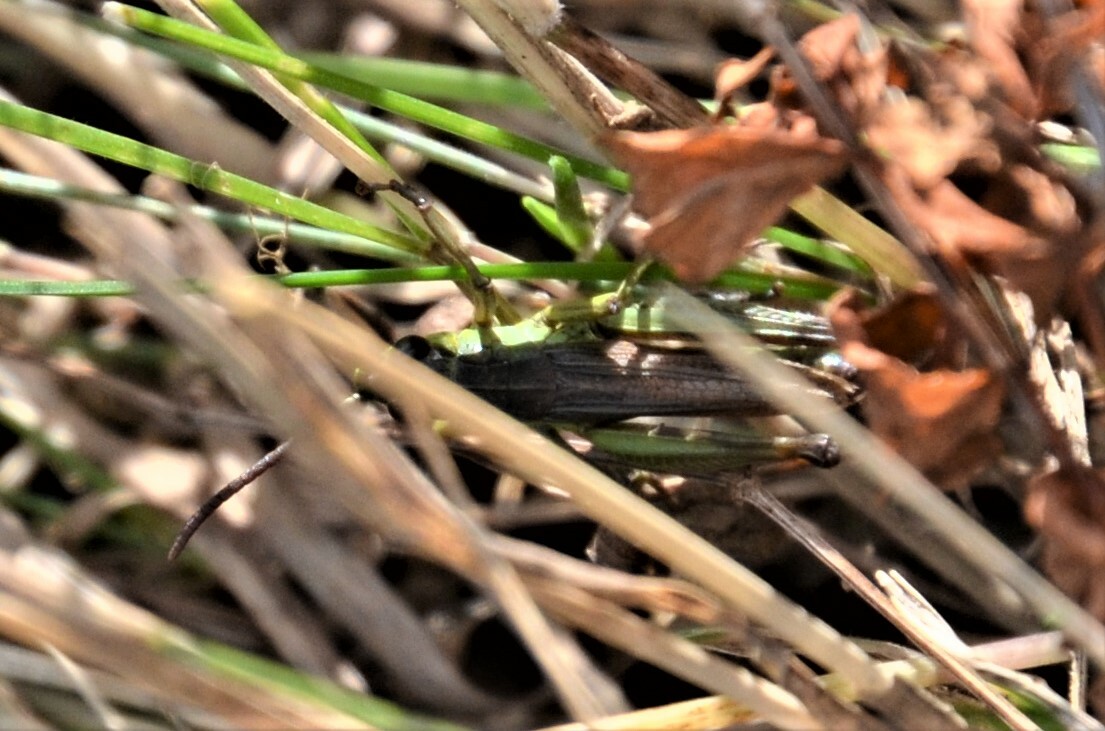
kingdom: Animalia
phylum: Arthropoda
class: Insecta
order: Orthoptera
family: Acrididae
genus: Pseudochorthippus
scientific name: Pseudochorthippus parallelus
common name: Meadow grasshopper
